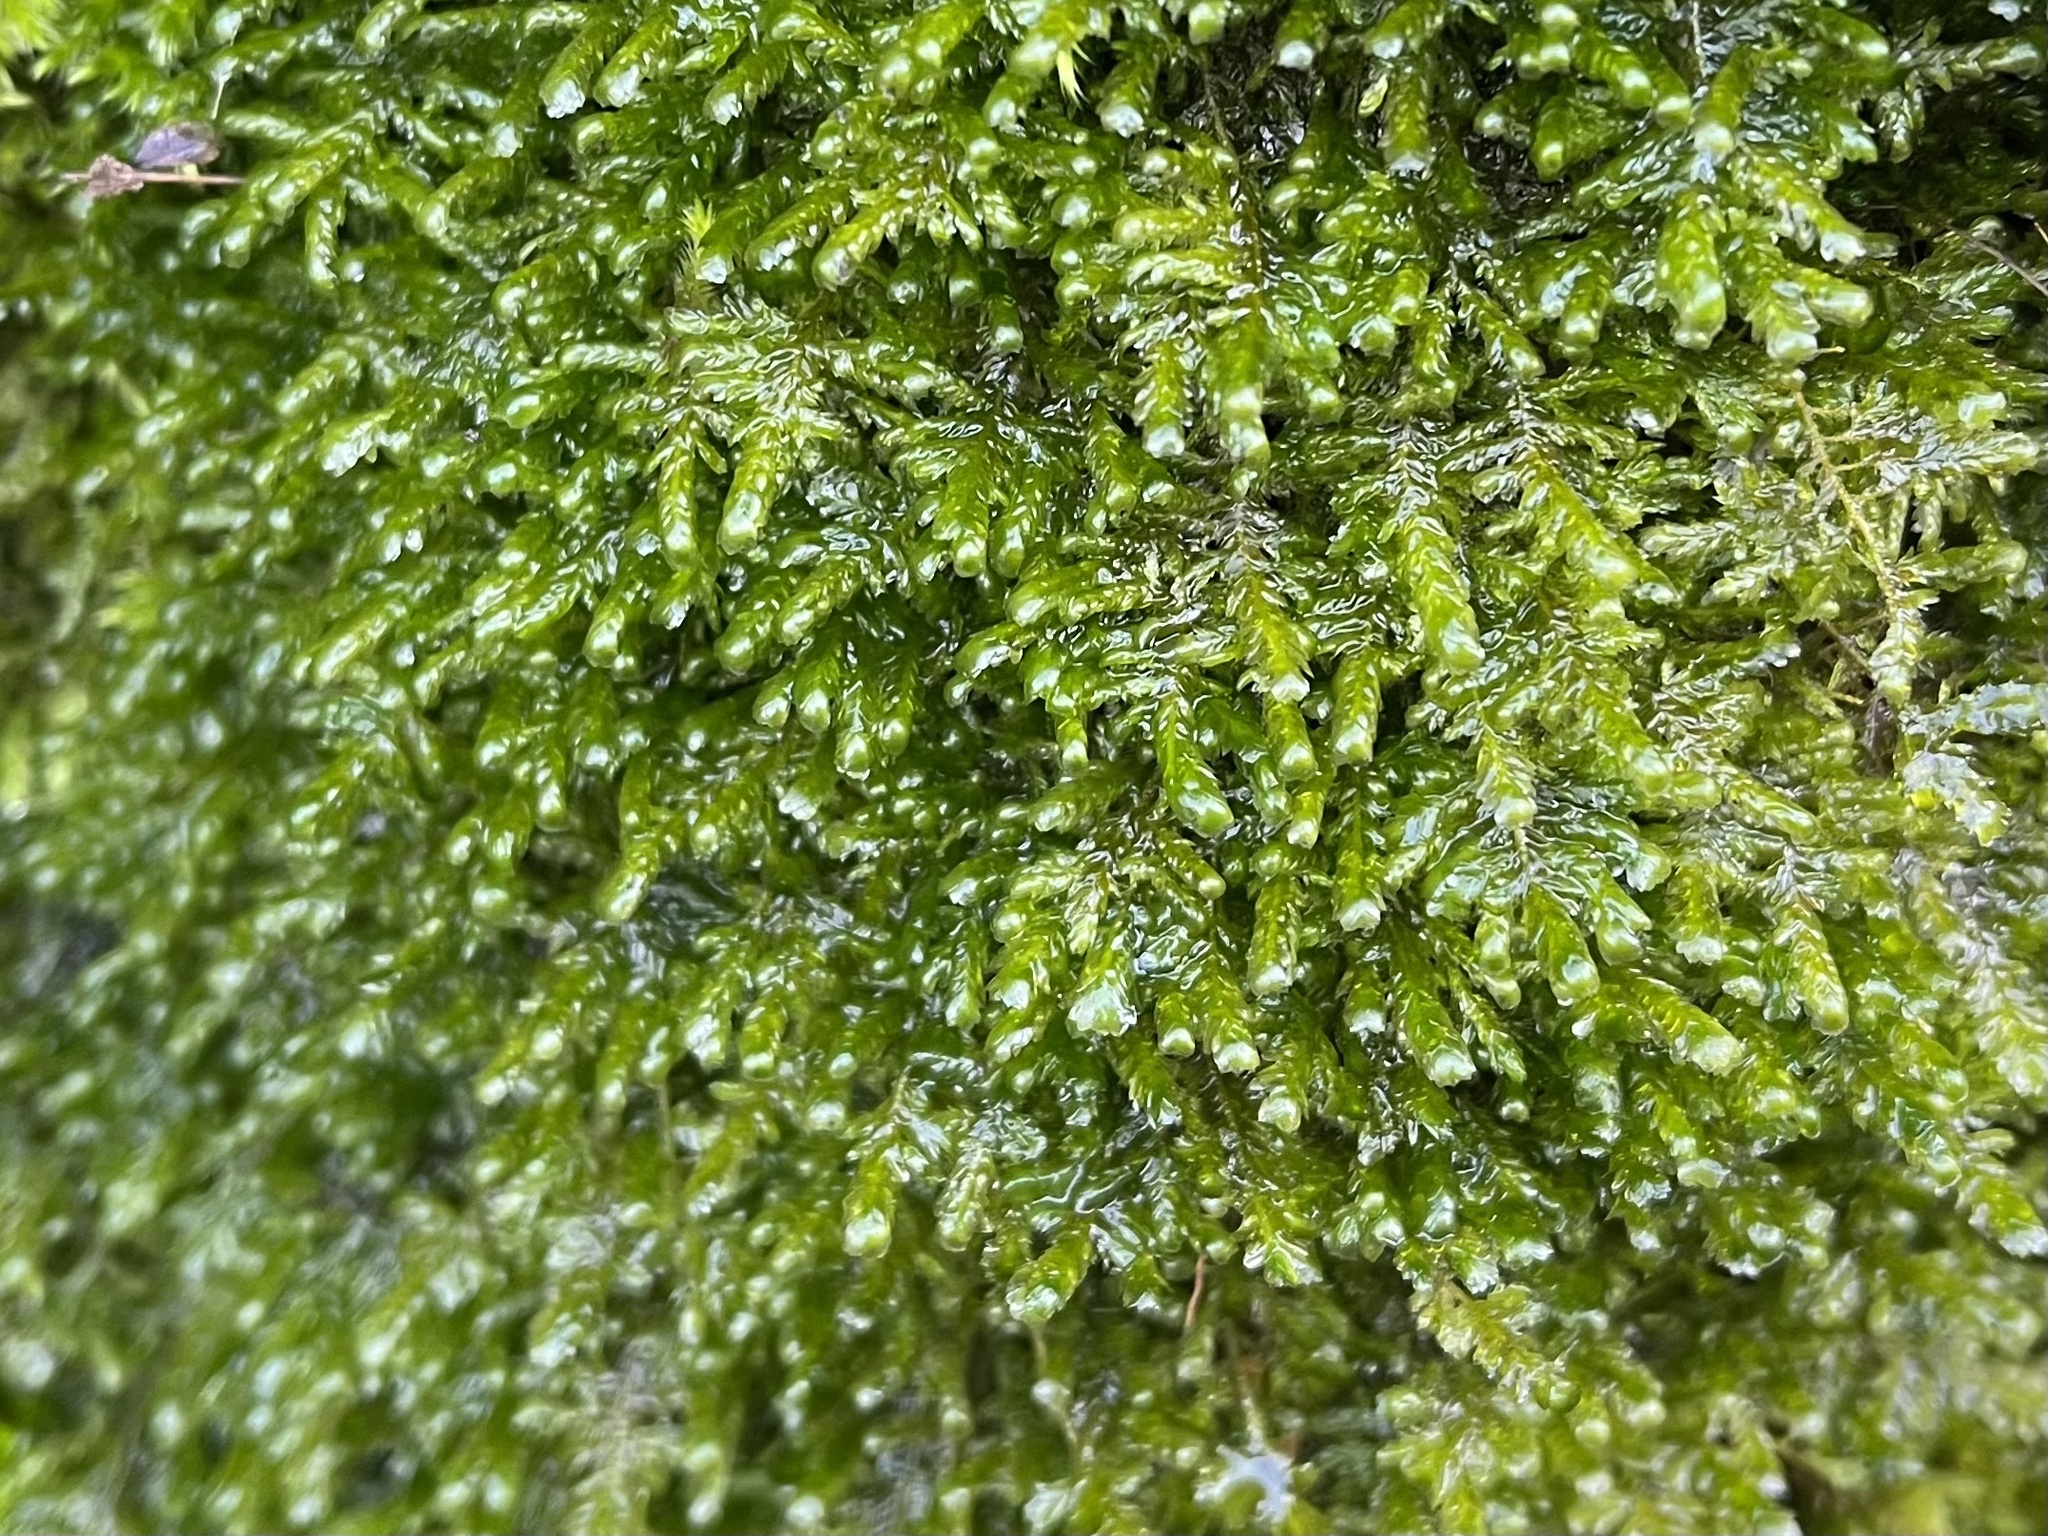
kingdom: Plantae
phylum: Bryophyta
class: Bryopsida
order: Hypnales
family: Neckeraceae
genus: Alleniella
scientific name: Alleniella complanata
